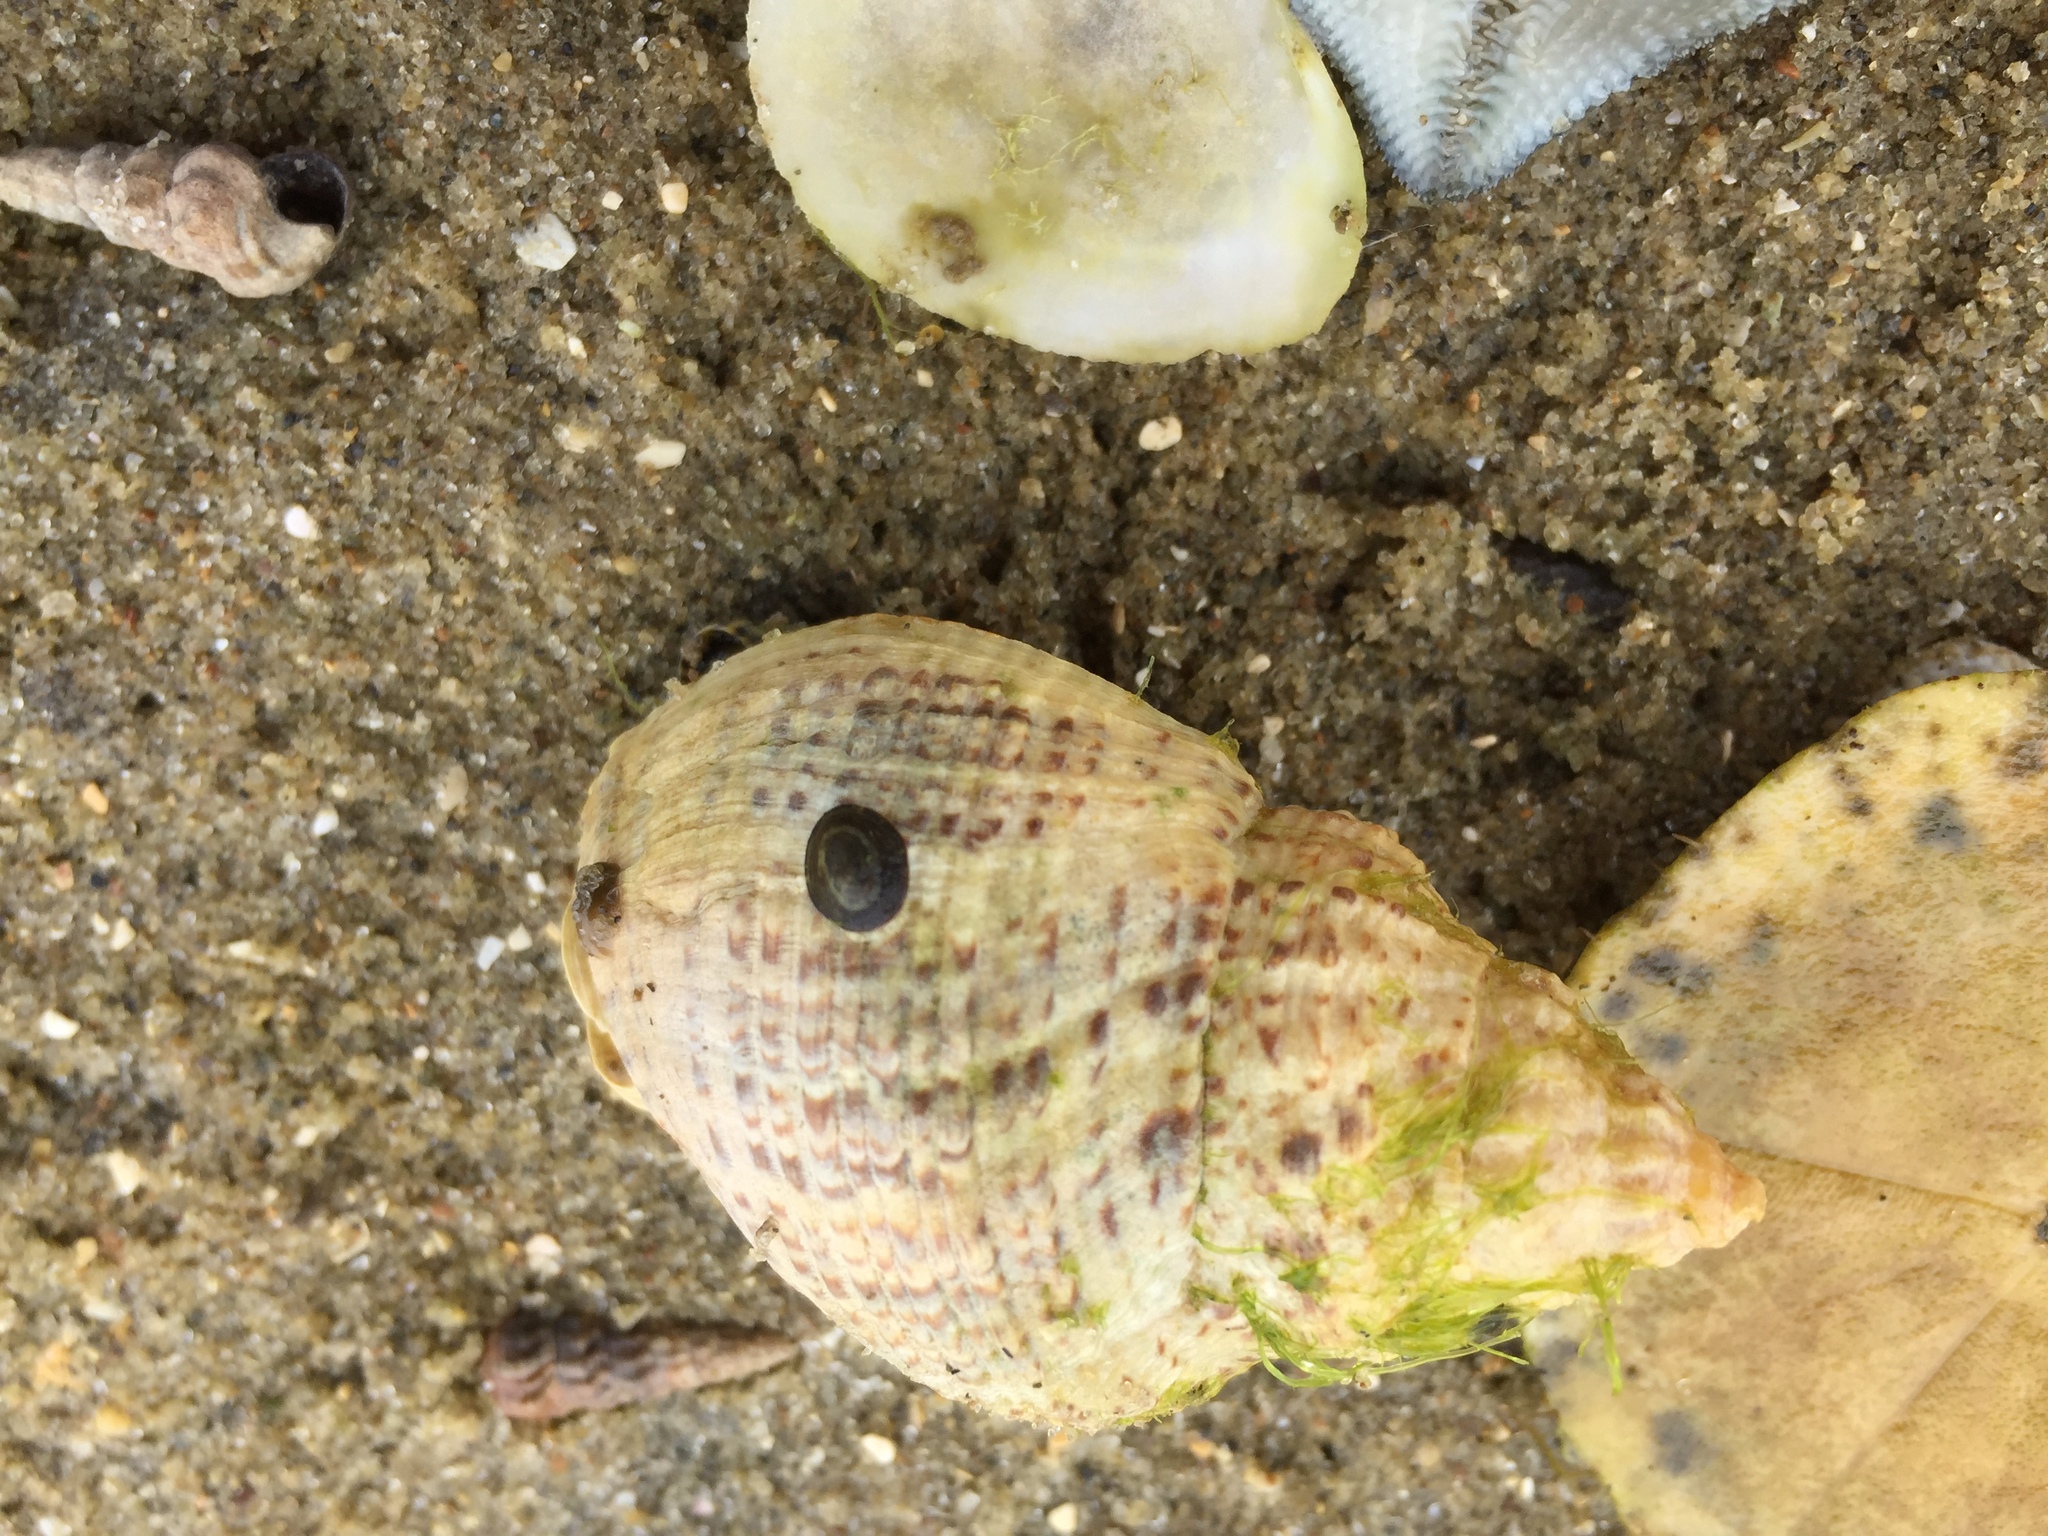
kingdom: Animalia
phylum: Mollusca
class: Gastropoda
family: Lottiidae
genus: Notoacmea
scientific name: Notoacmea elongata
